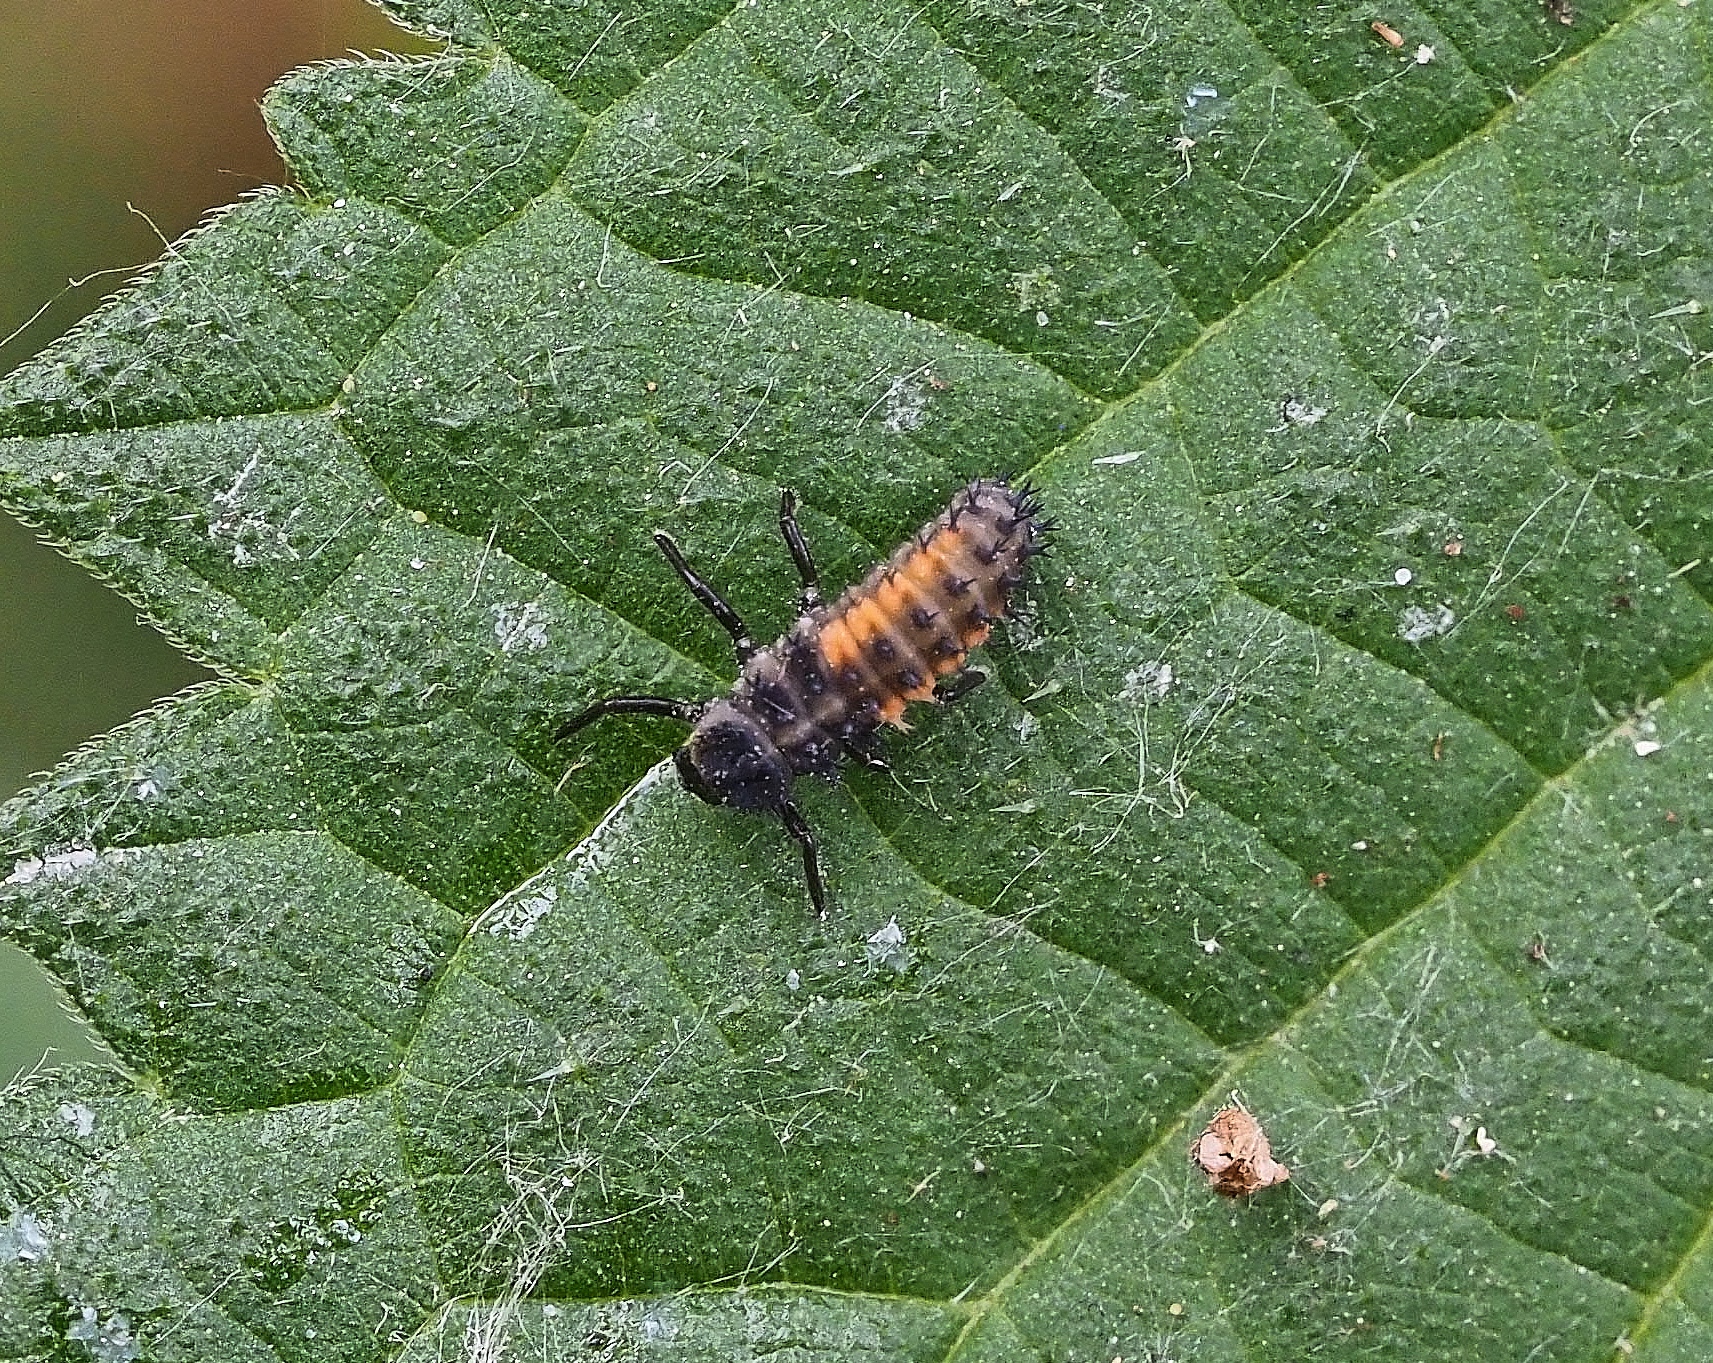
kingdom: Animalia
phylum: Arthropoda
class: Insecta
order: Coleoptera
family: Coccinellidae
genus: Harmonia
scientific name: Harmonia axyridis
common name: Harlequin ladybird
